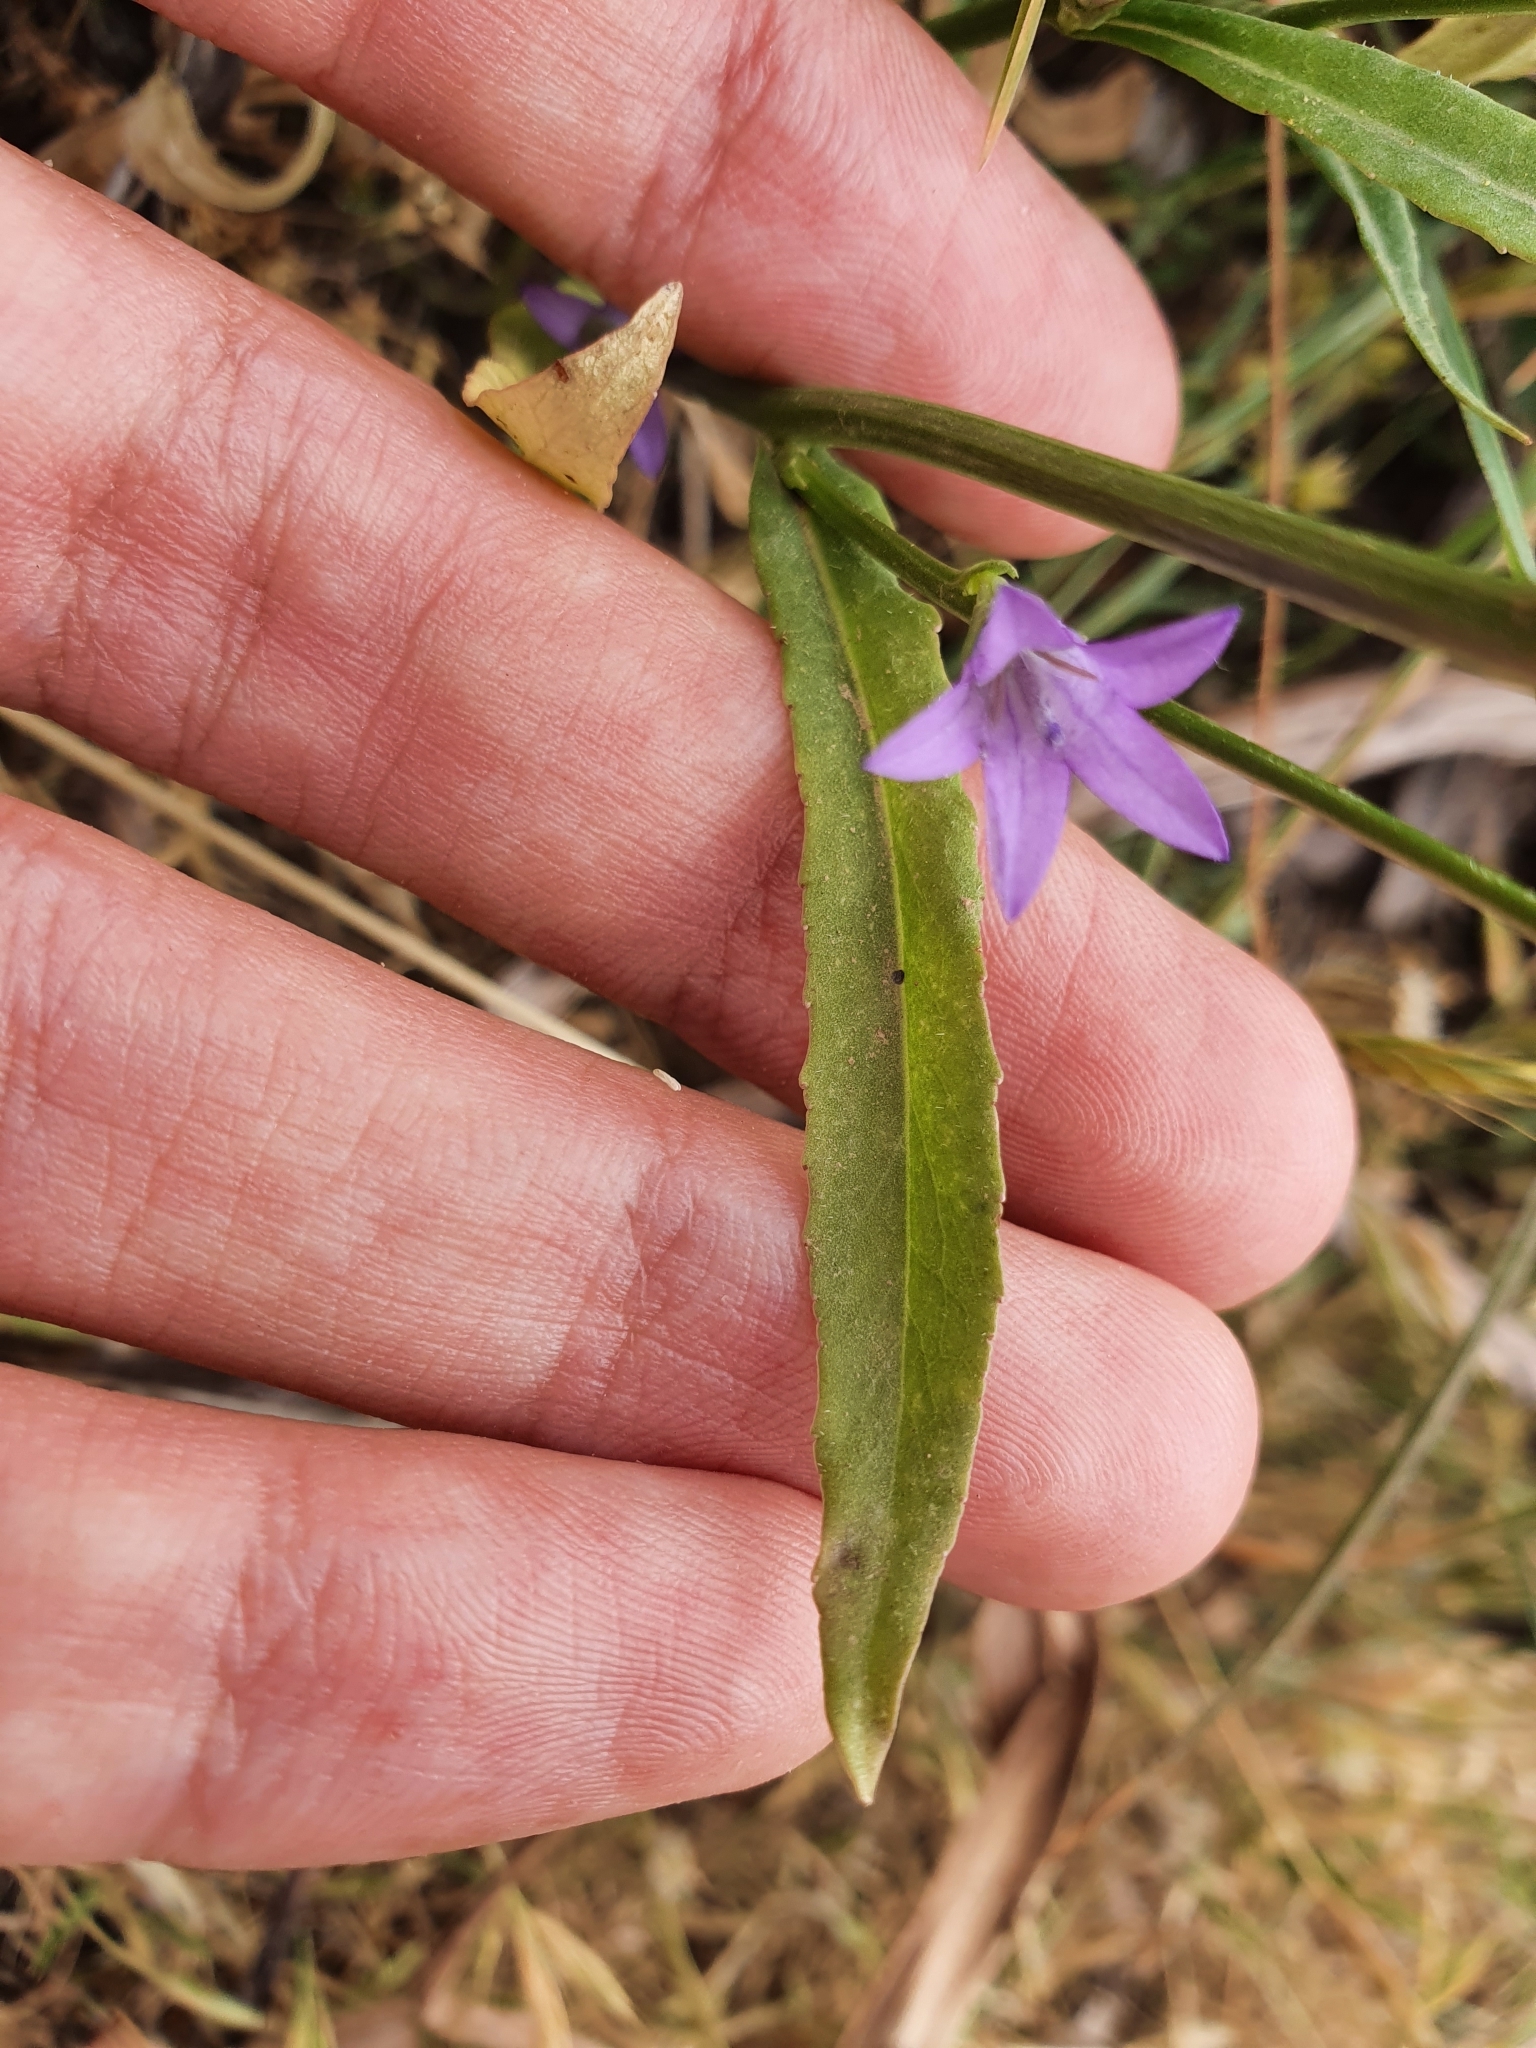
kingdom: Plantae
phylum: Tracheophyta
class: Magnoliopsida
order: Asterales
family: Campanulaceae
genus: Campanula
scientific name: Campanula rapunculus
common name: Rampion bellflower
